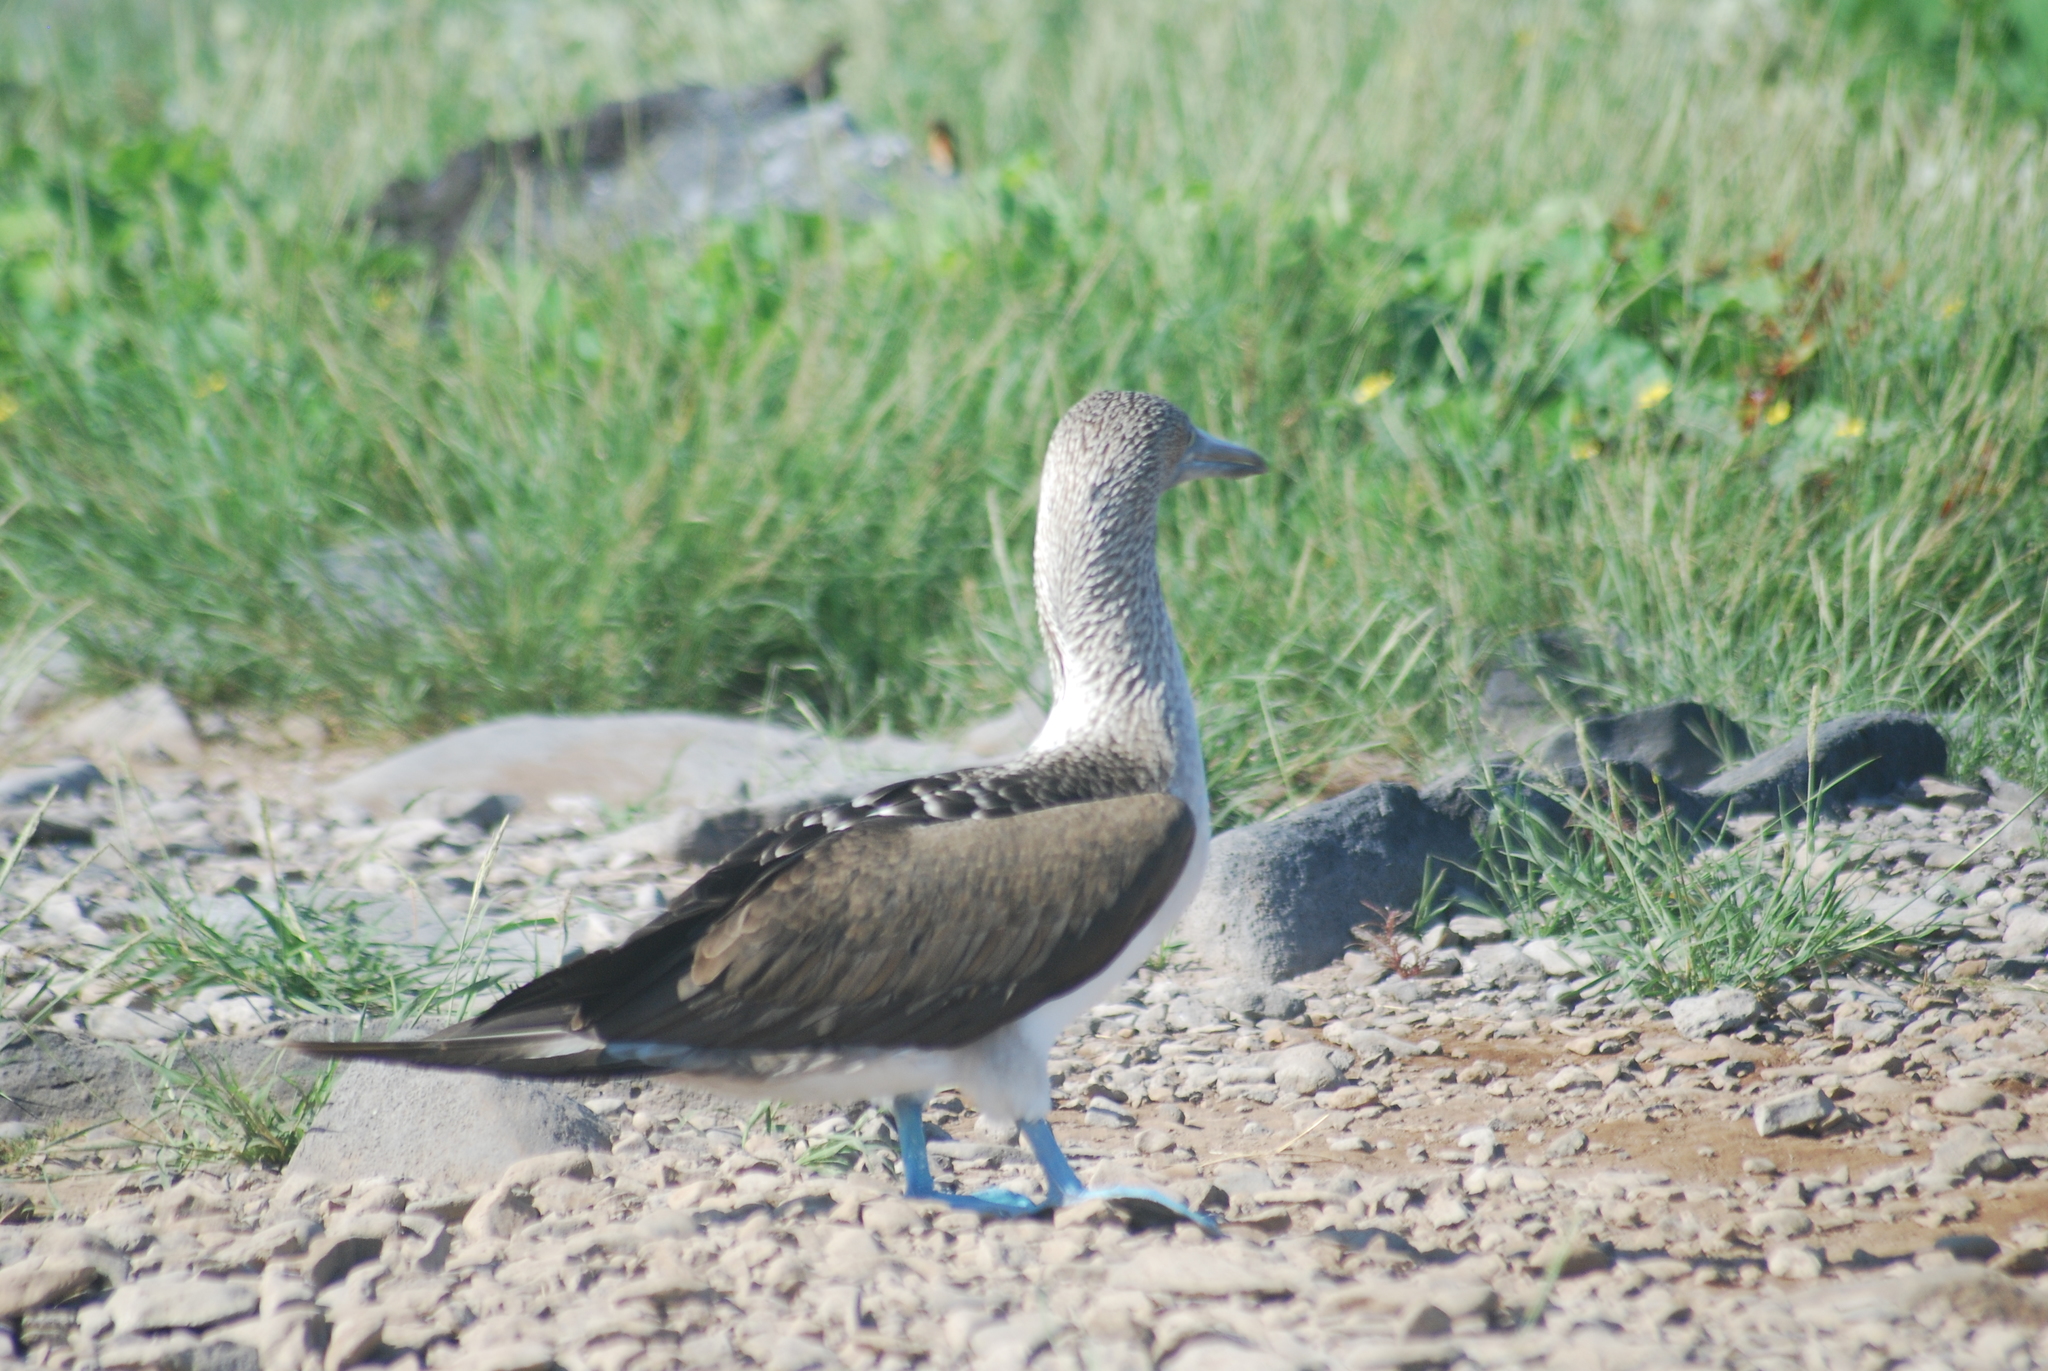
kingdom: Animalia
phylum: Chordata
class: Aves
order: Suliformes
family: Sulidae
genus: Sula
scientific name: Sula nebouxii
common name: Blue-footed booby
